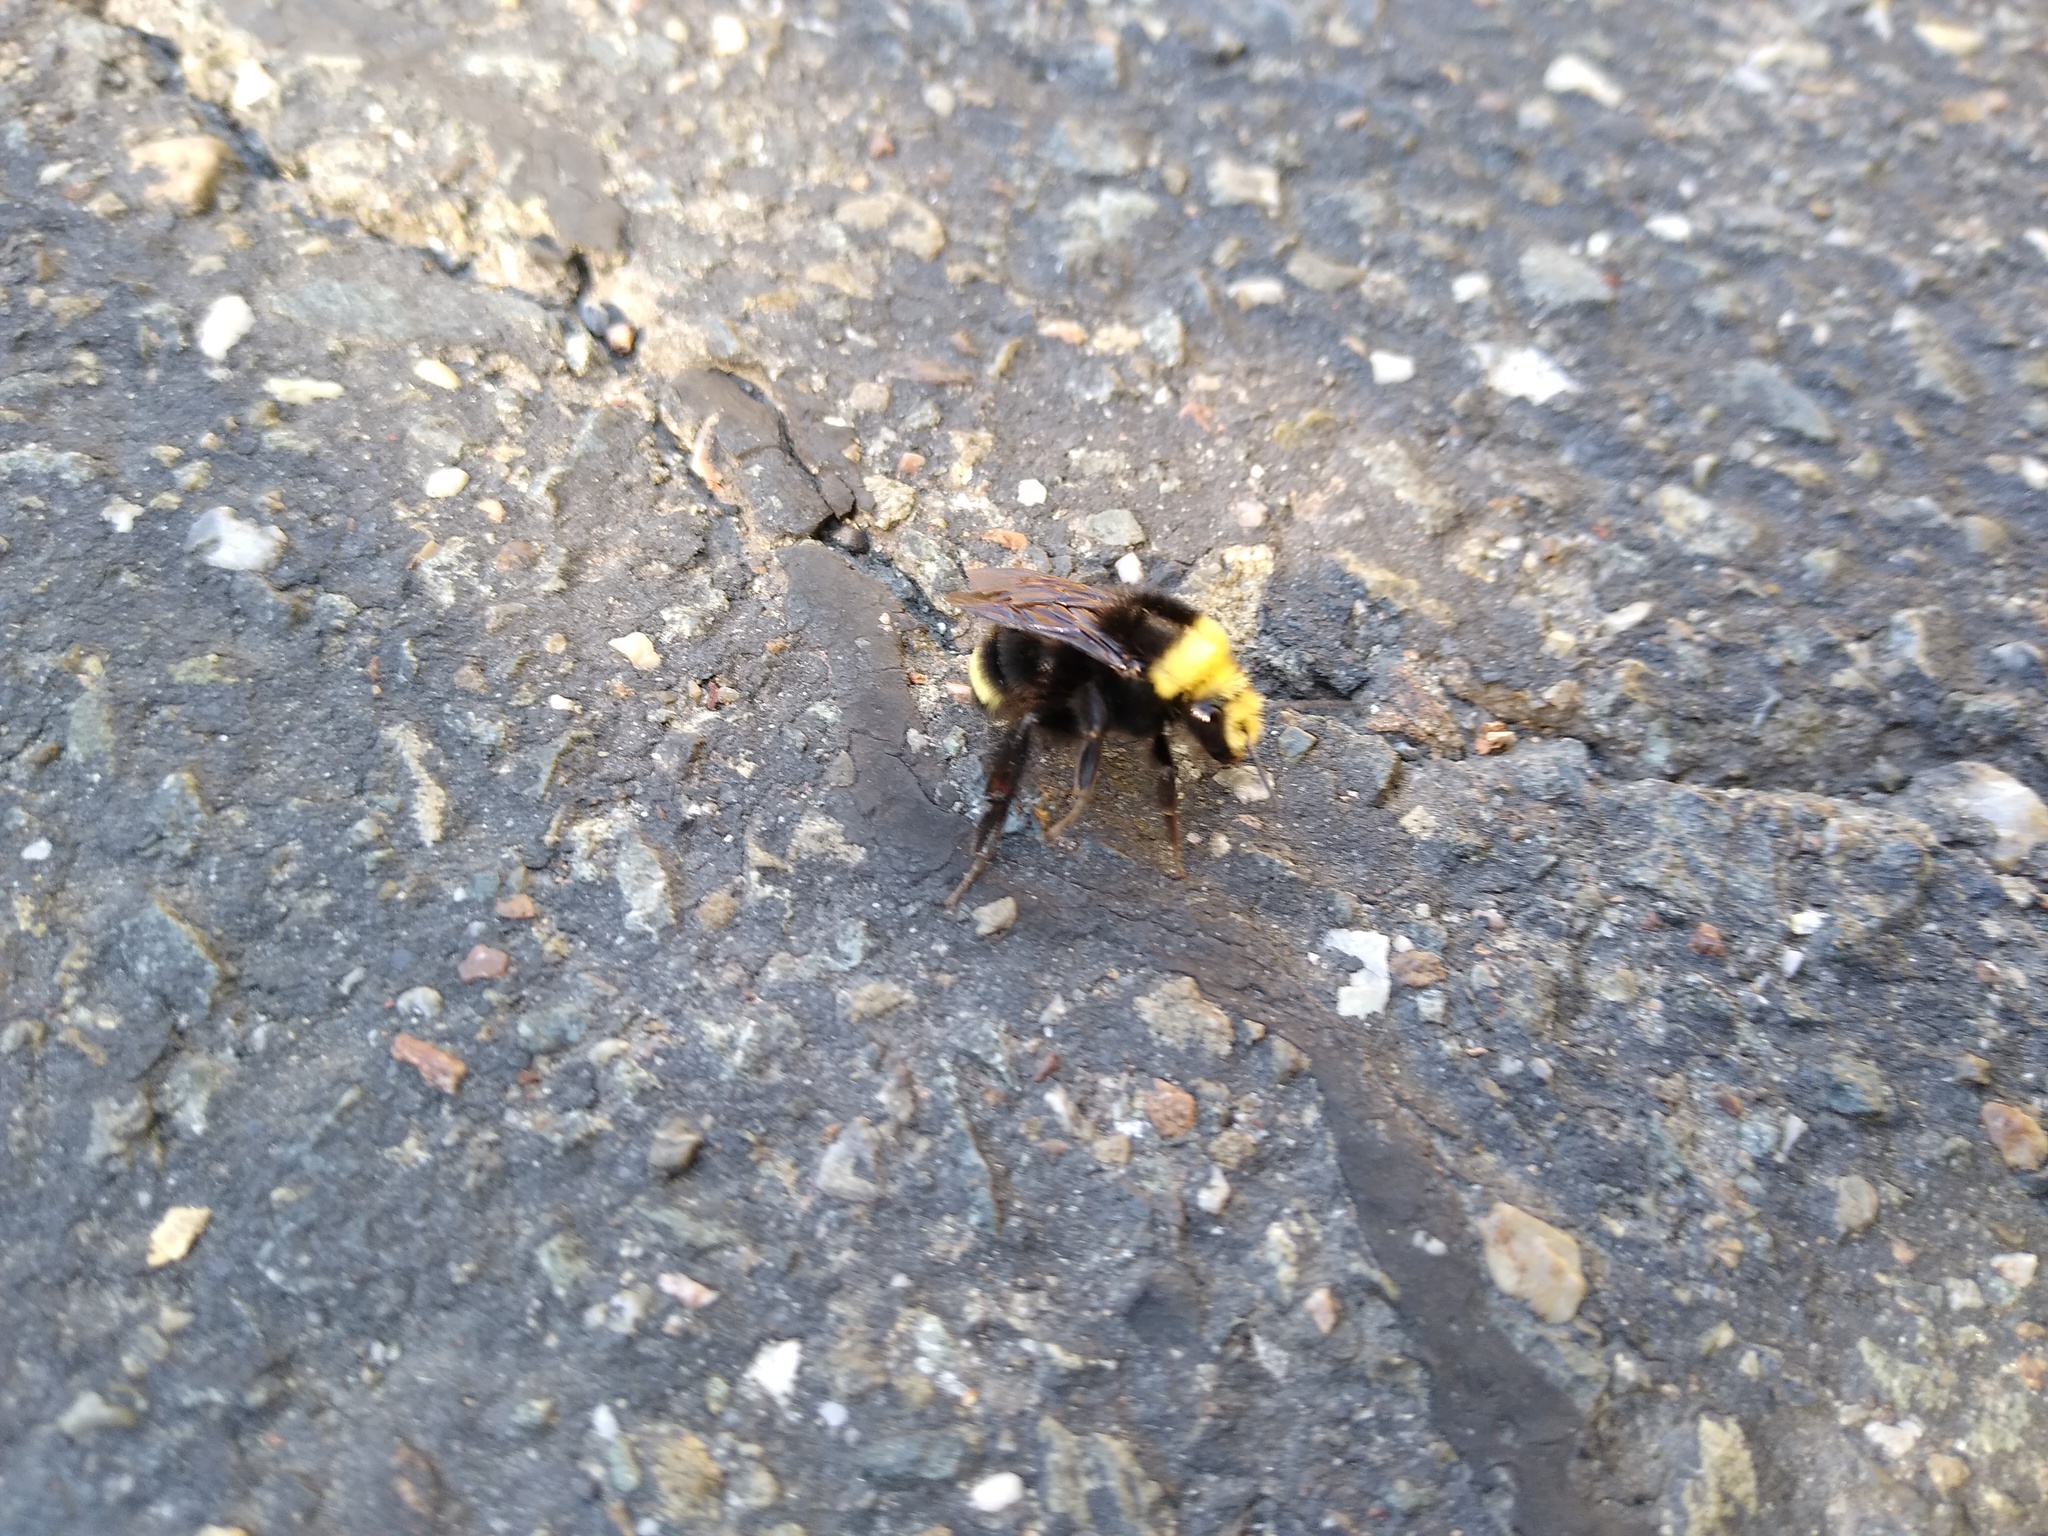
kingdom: Animalia
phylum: Arthropoda
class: Insecta
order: Hymenoptera
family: Apidae
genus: Bombus
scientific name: Bombus vosnesenskii
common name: Vosnesensky bumble bee
